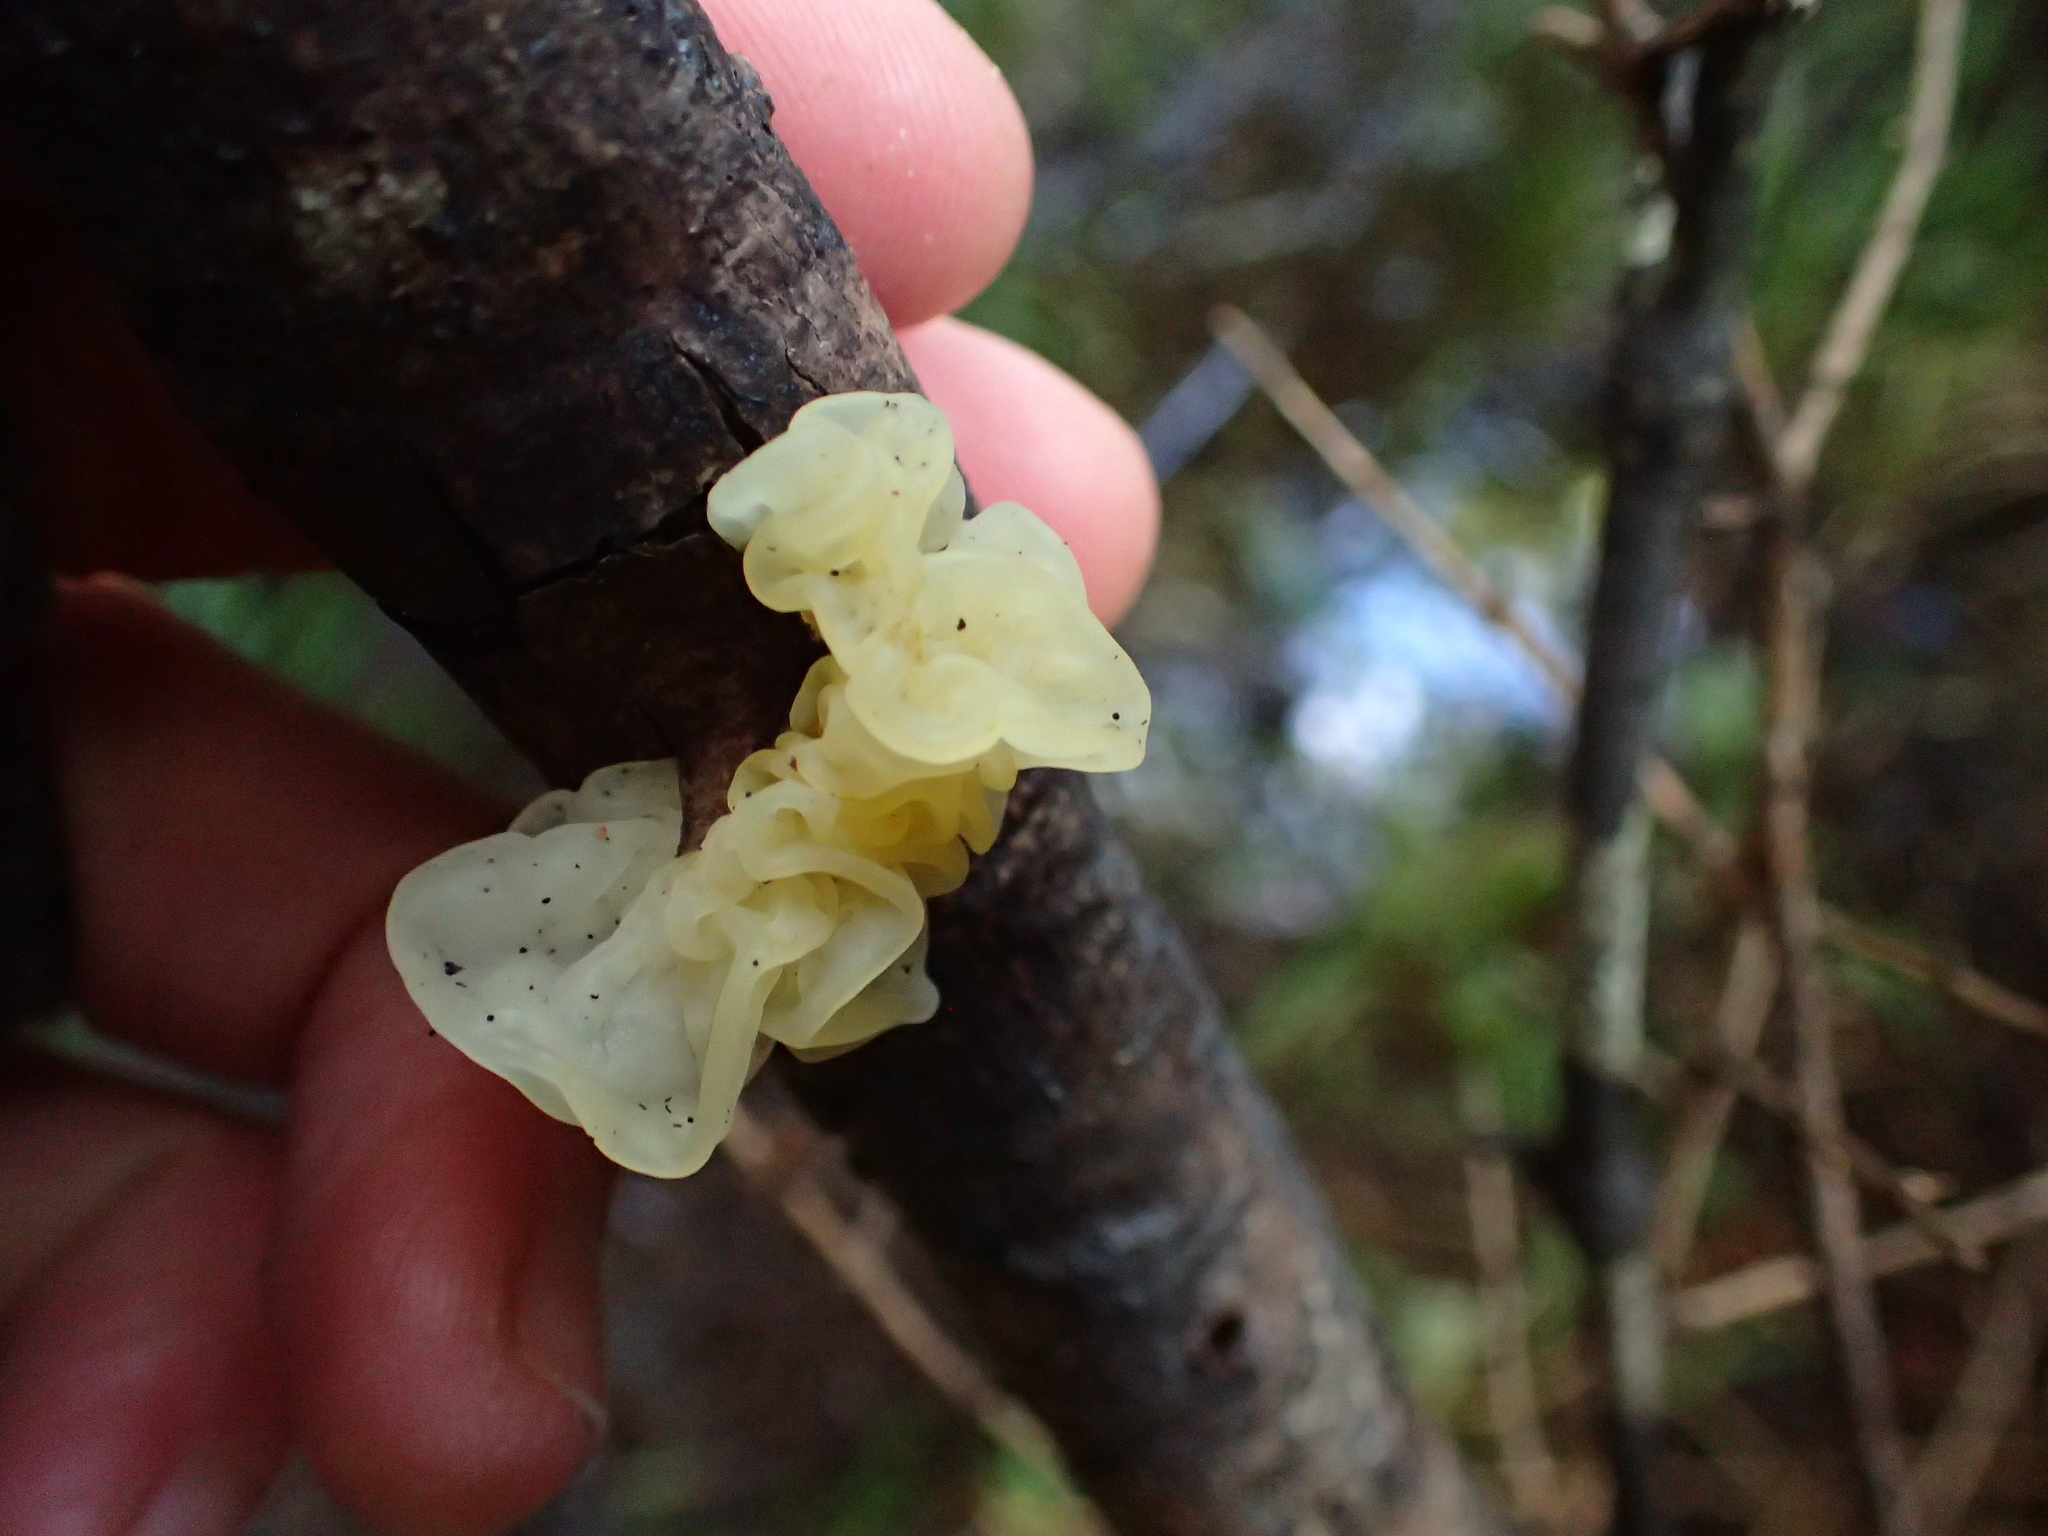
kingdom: Fungi
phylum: Basidiomycota
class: Tremellomycetes
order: Tremellales
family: Tremellaceae
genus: Tremella
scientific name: Tremella fuciformis
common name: Snow fungus
